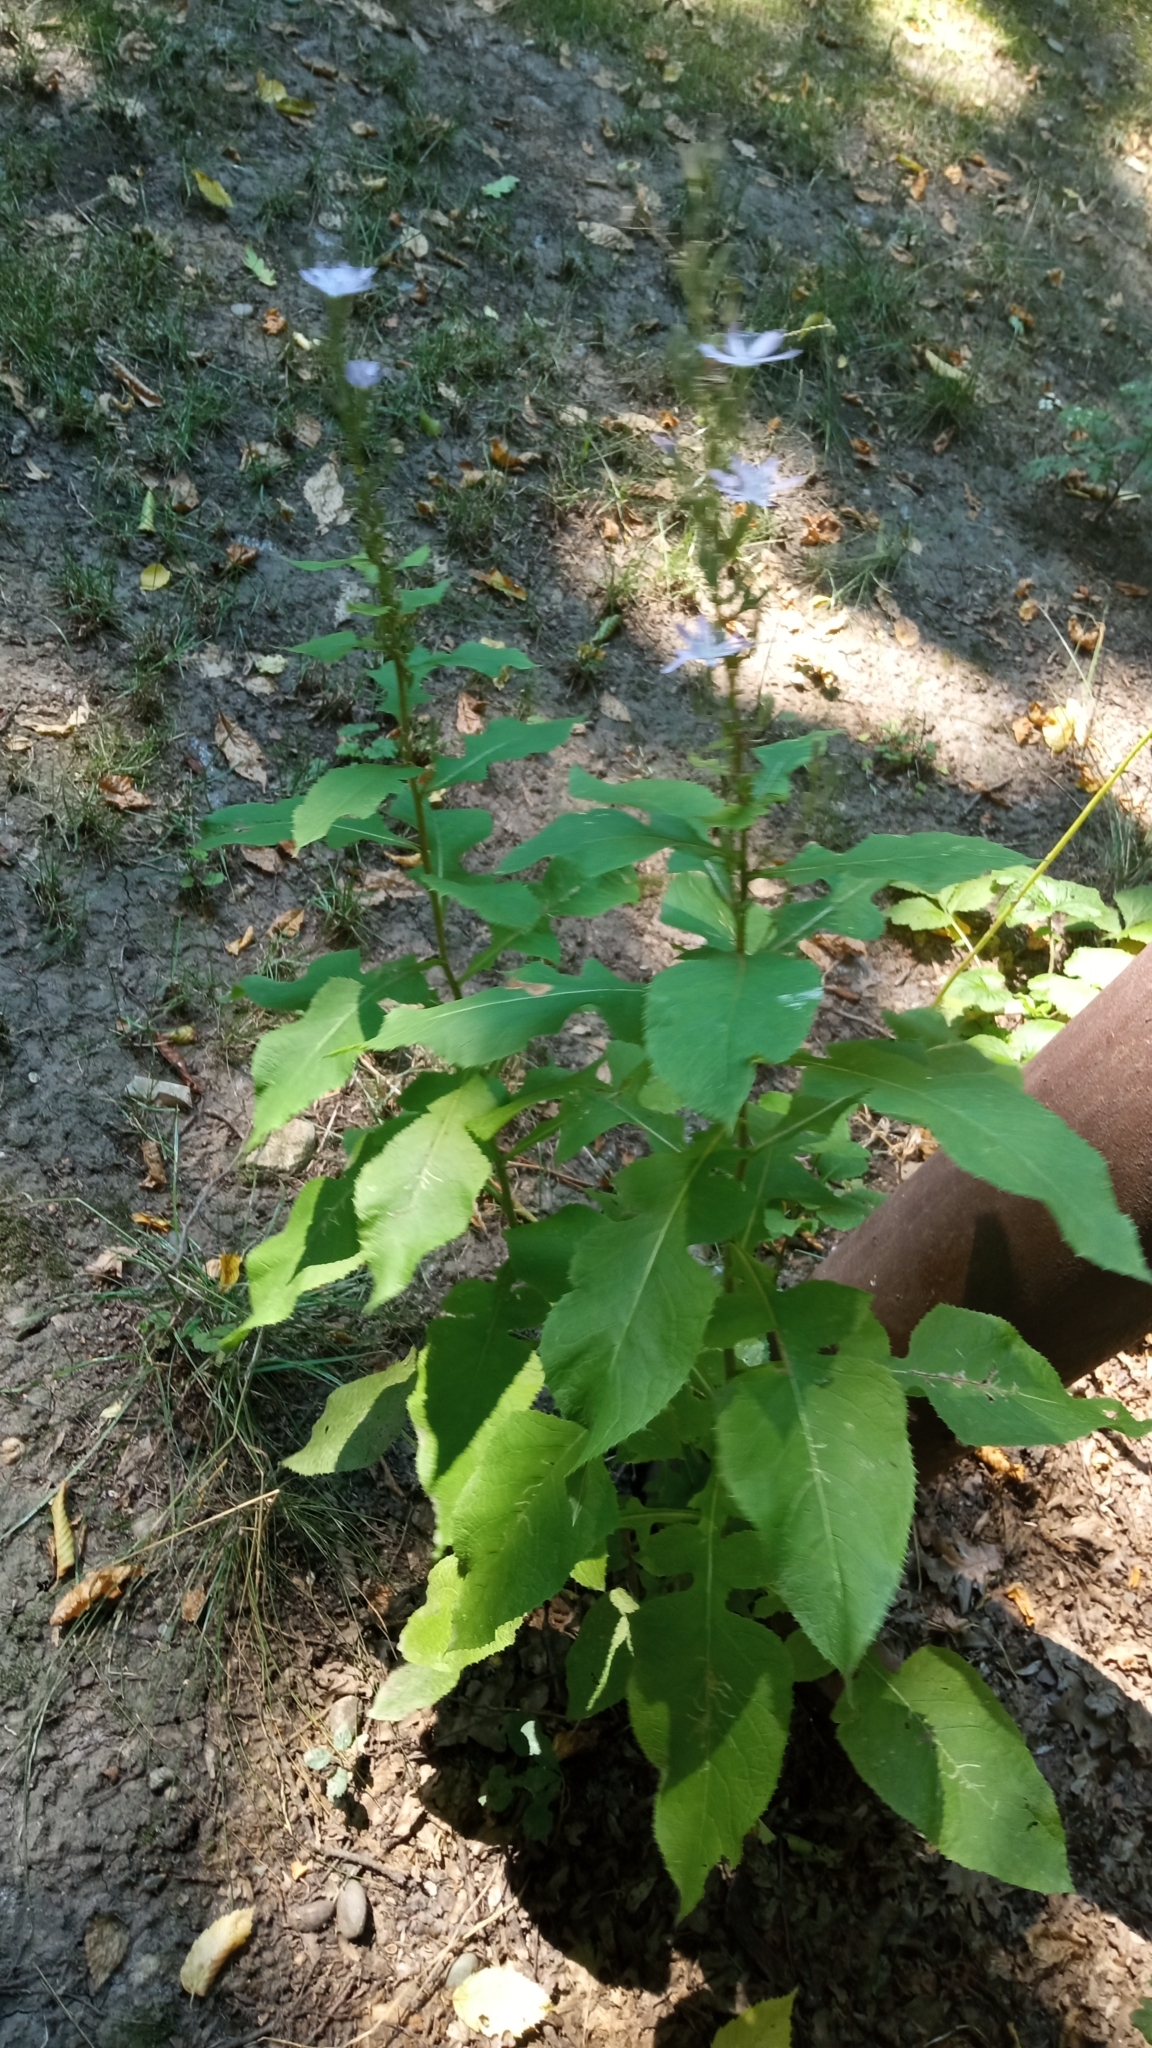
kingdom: Plantae
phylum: Tracheophyta
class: Magnoliopsida
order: Asterales
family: Asteraceae
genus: Cicerbita
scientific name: Cicerbita prenanthoides
